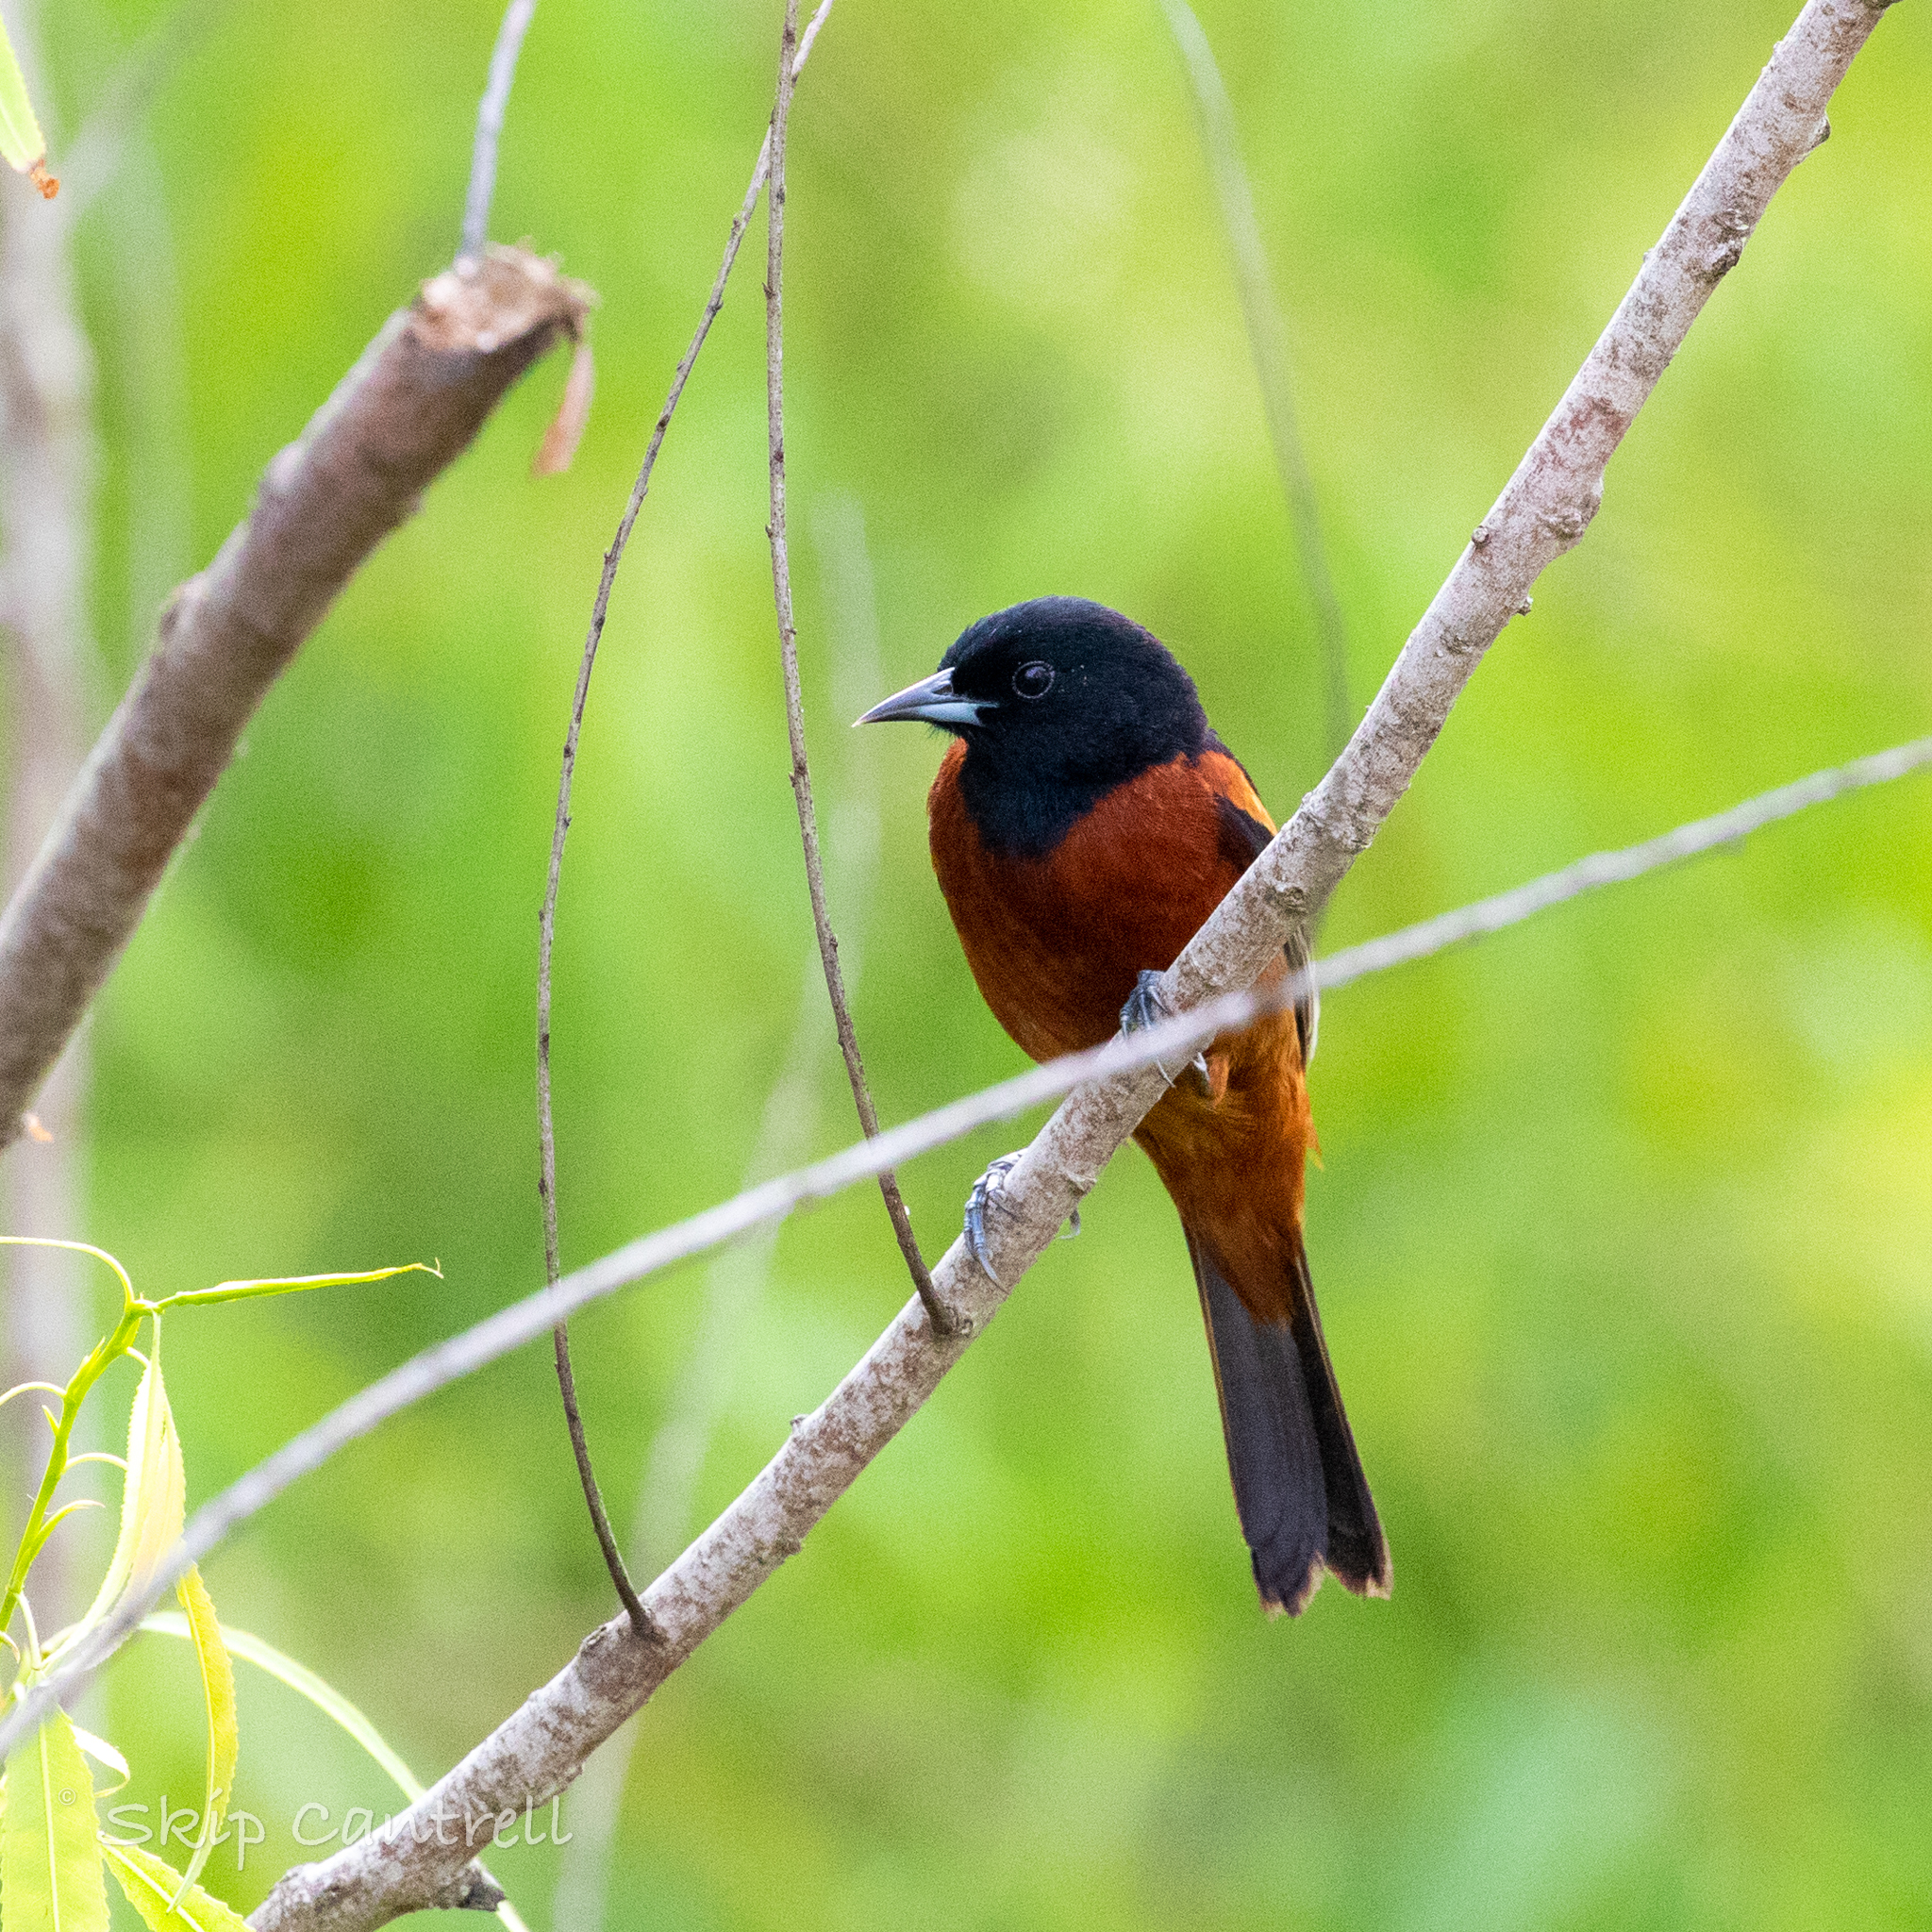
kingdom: Animalia
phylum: Chordata
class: Aves
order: Passeriformes
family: Icteridae
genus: Icterus
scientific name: Icterus spurius
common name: Orchard oriole
